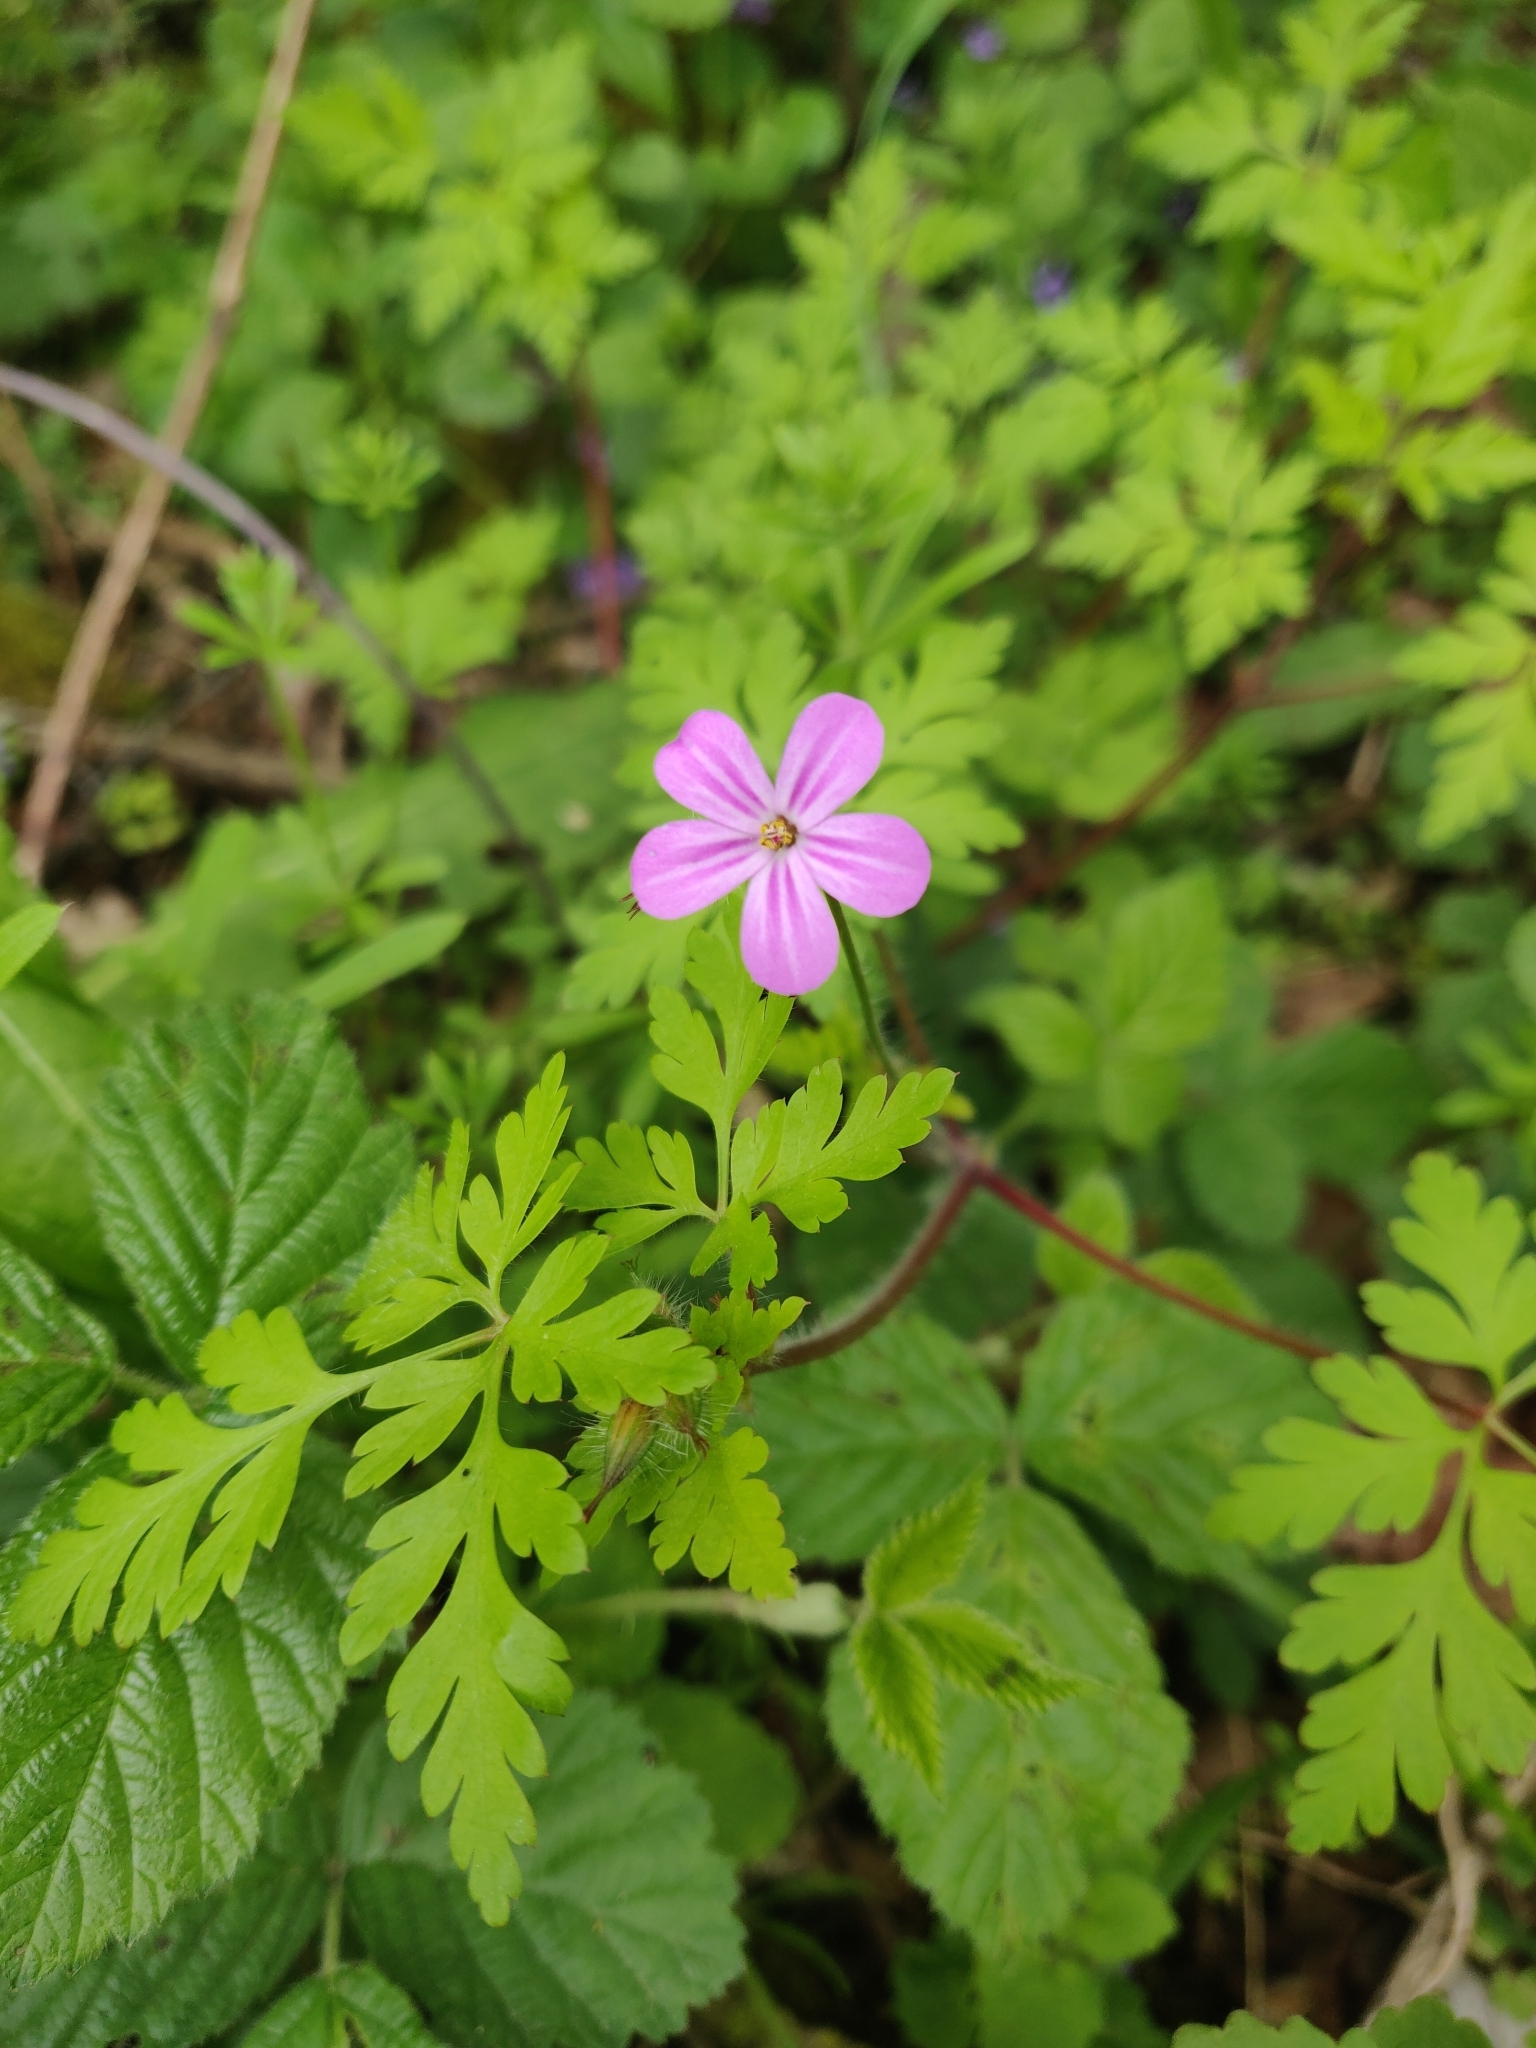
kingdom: Plantae
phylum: Tracheophyta
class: Magnoliopsida
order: Geraniales
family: Geraniaceae
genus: Geranium
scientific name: Geranium robertianum
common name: Herb-robert
